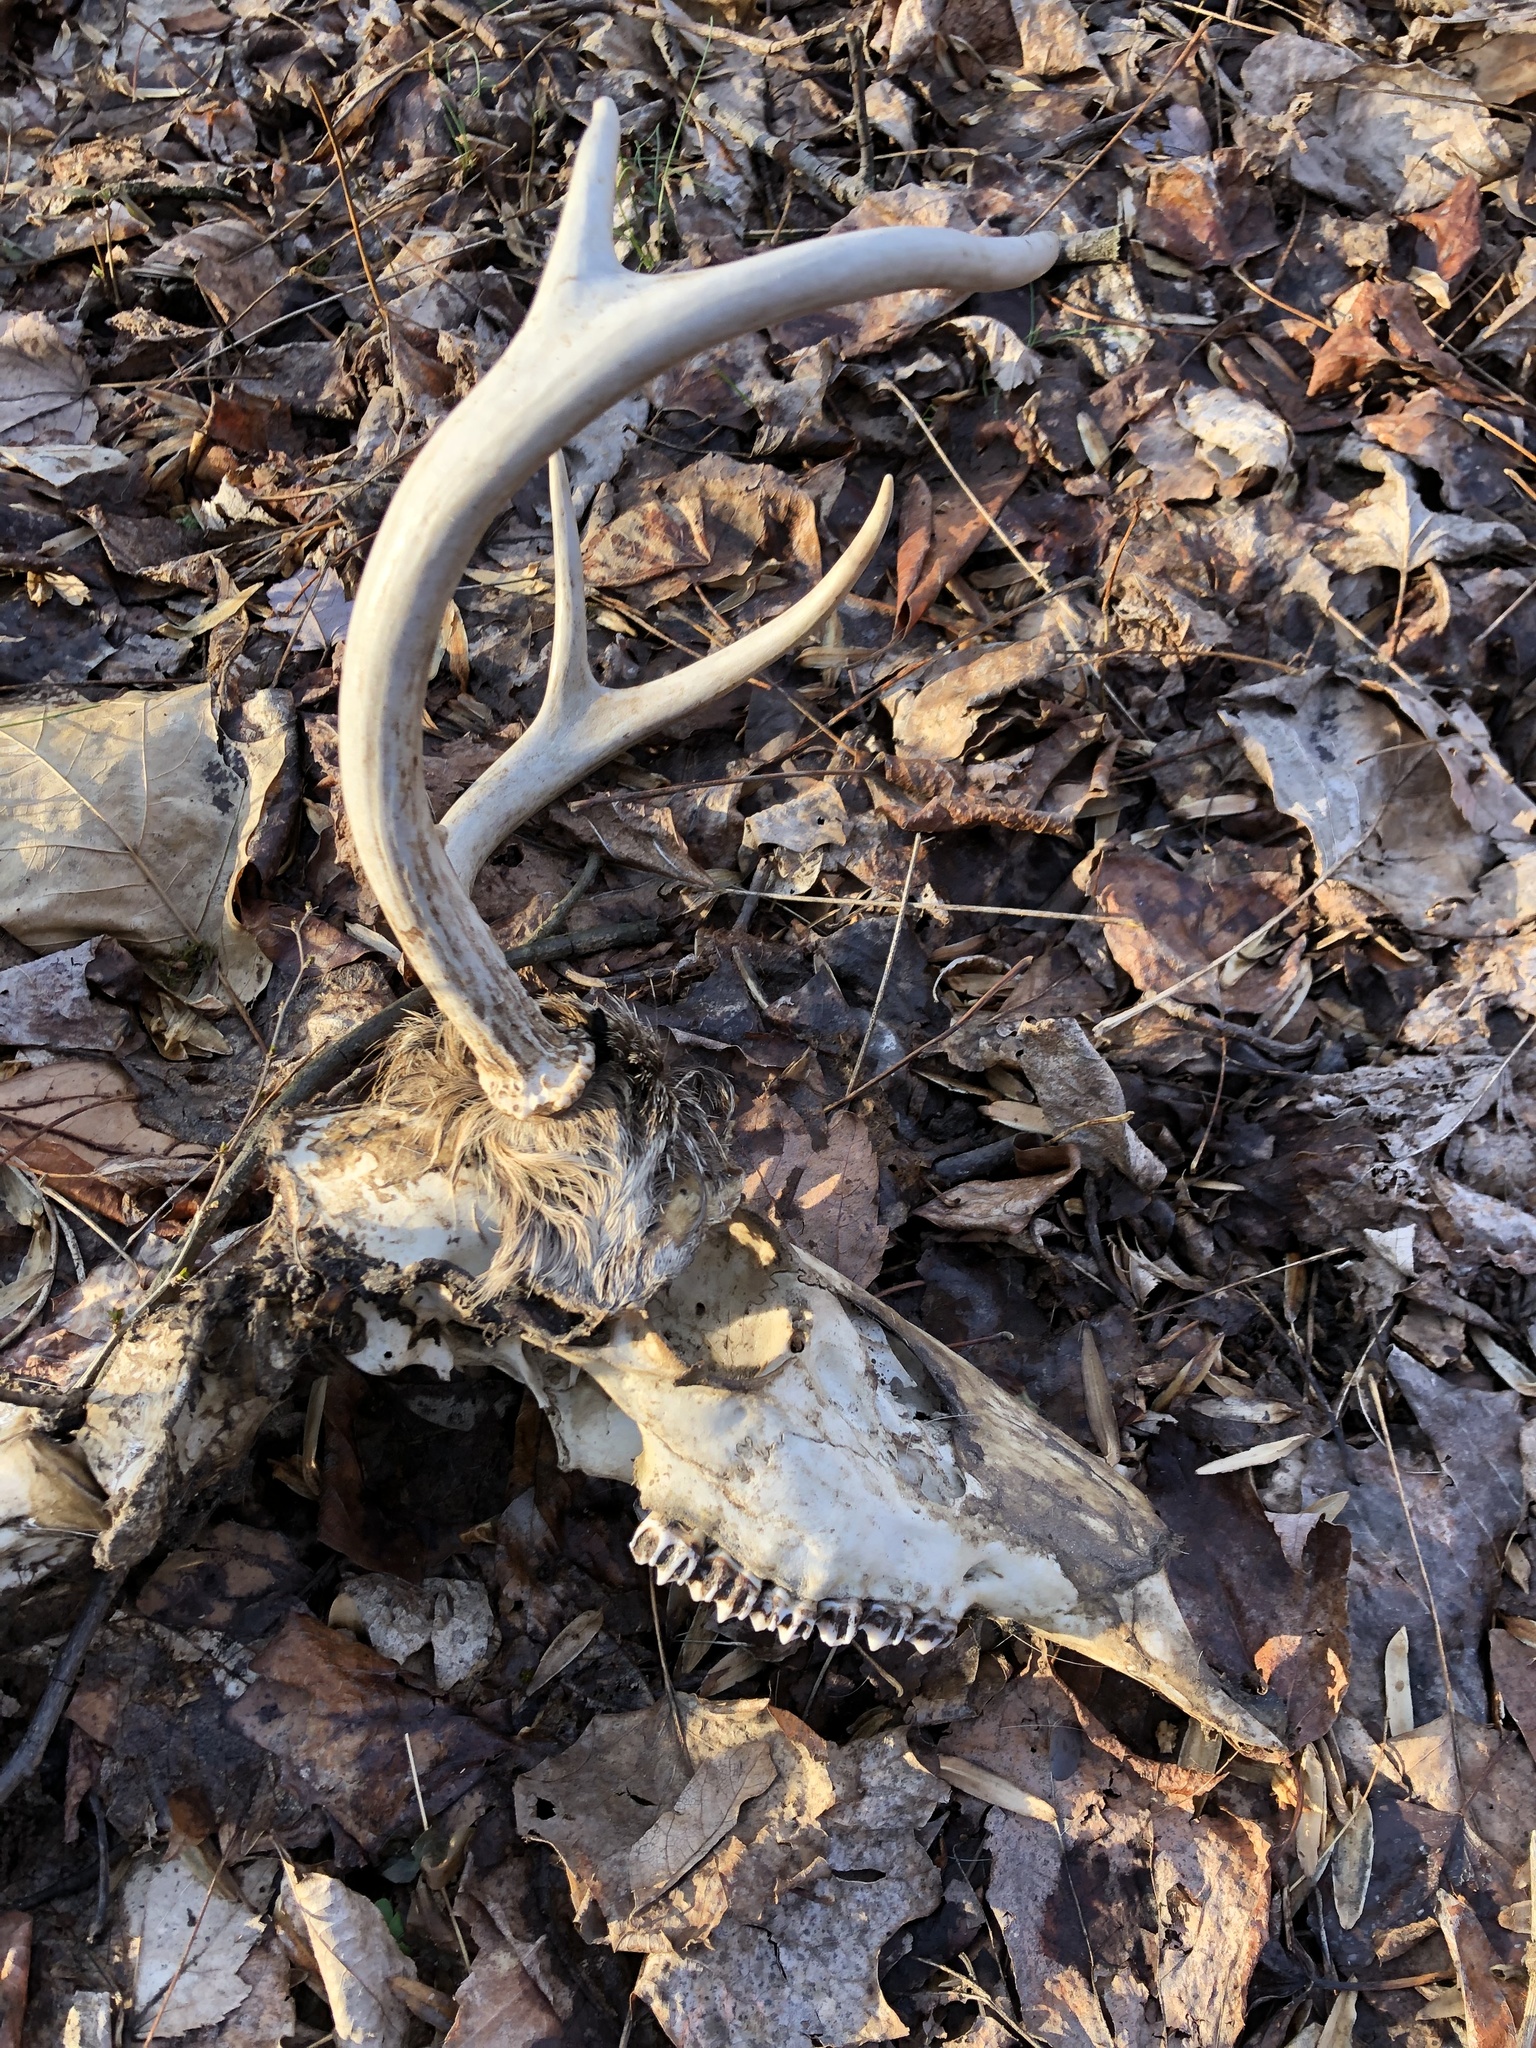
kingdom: Animalia
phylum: Chordata
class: Mammalia
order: Artiodactyla
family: Cervidae
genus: Odocoileus
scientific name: Odocoileus virginianus
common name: White-tailed deer
